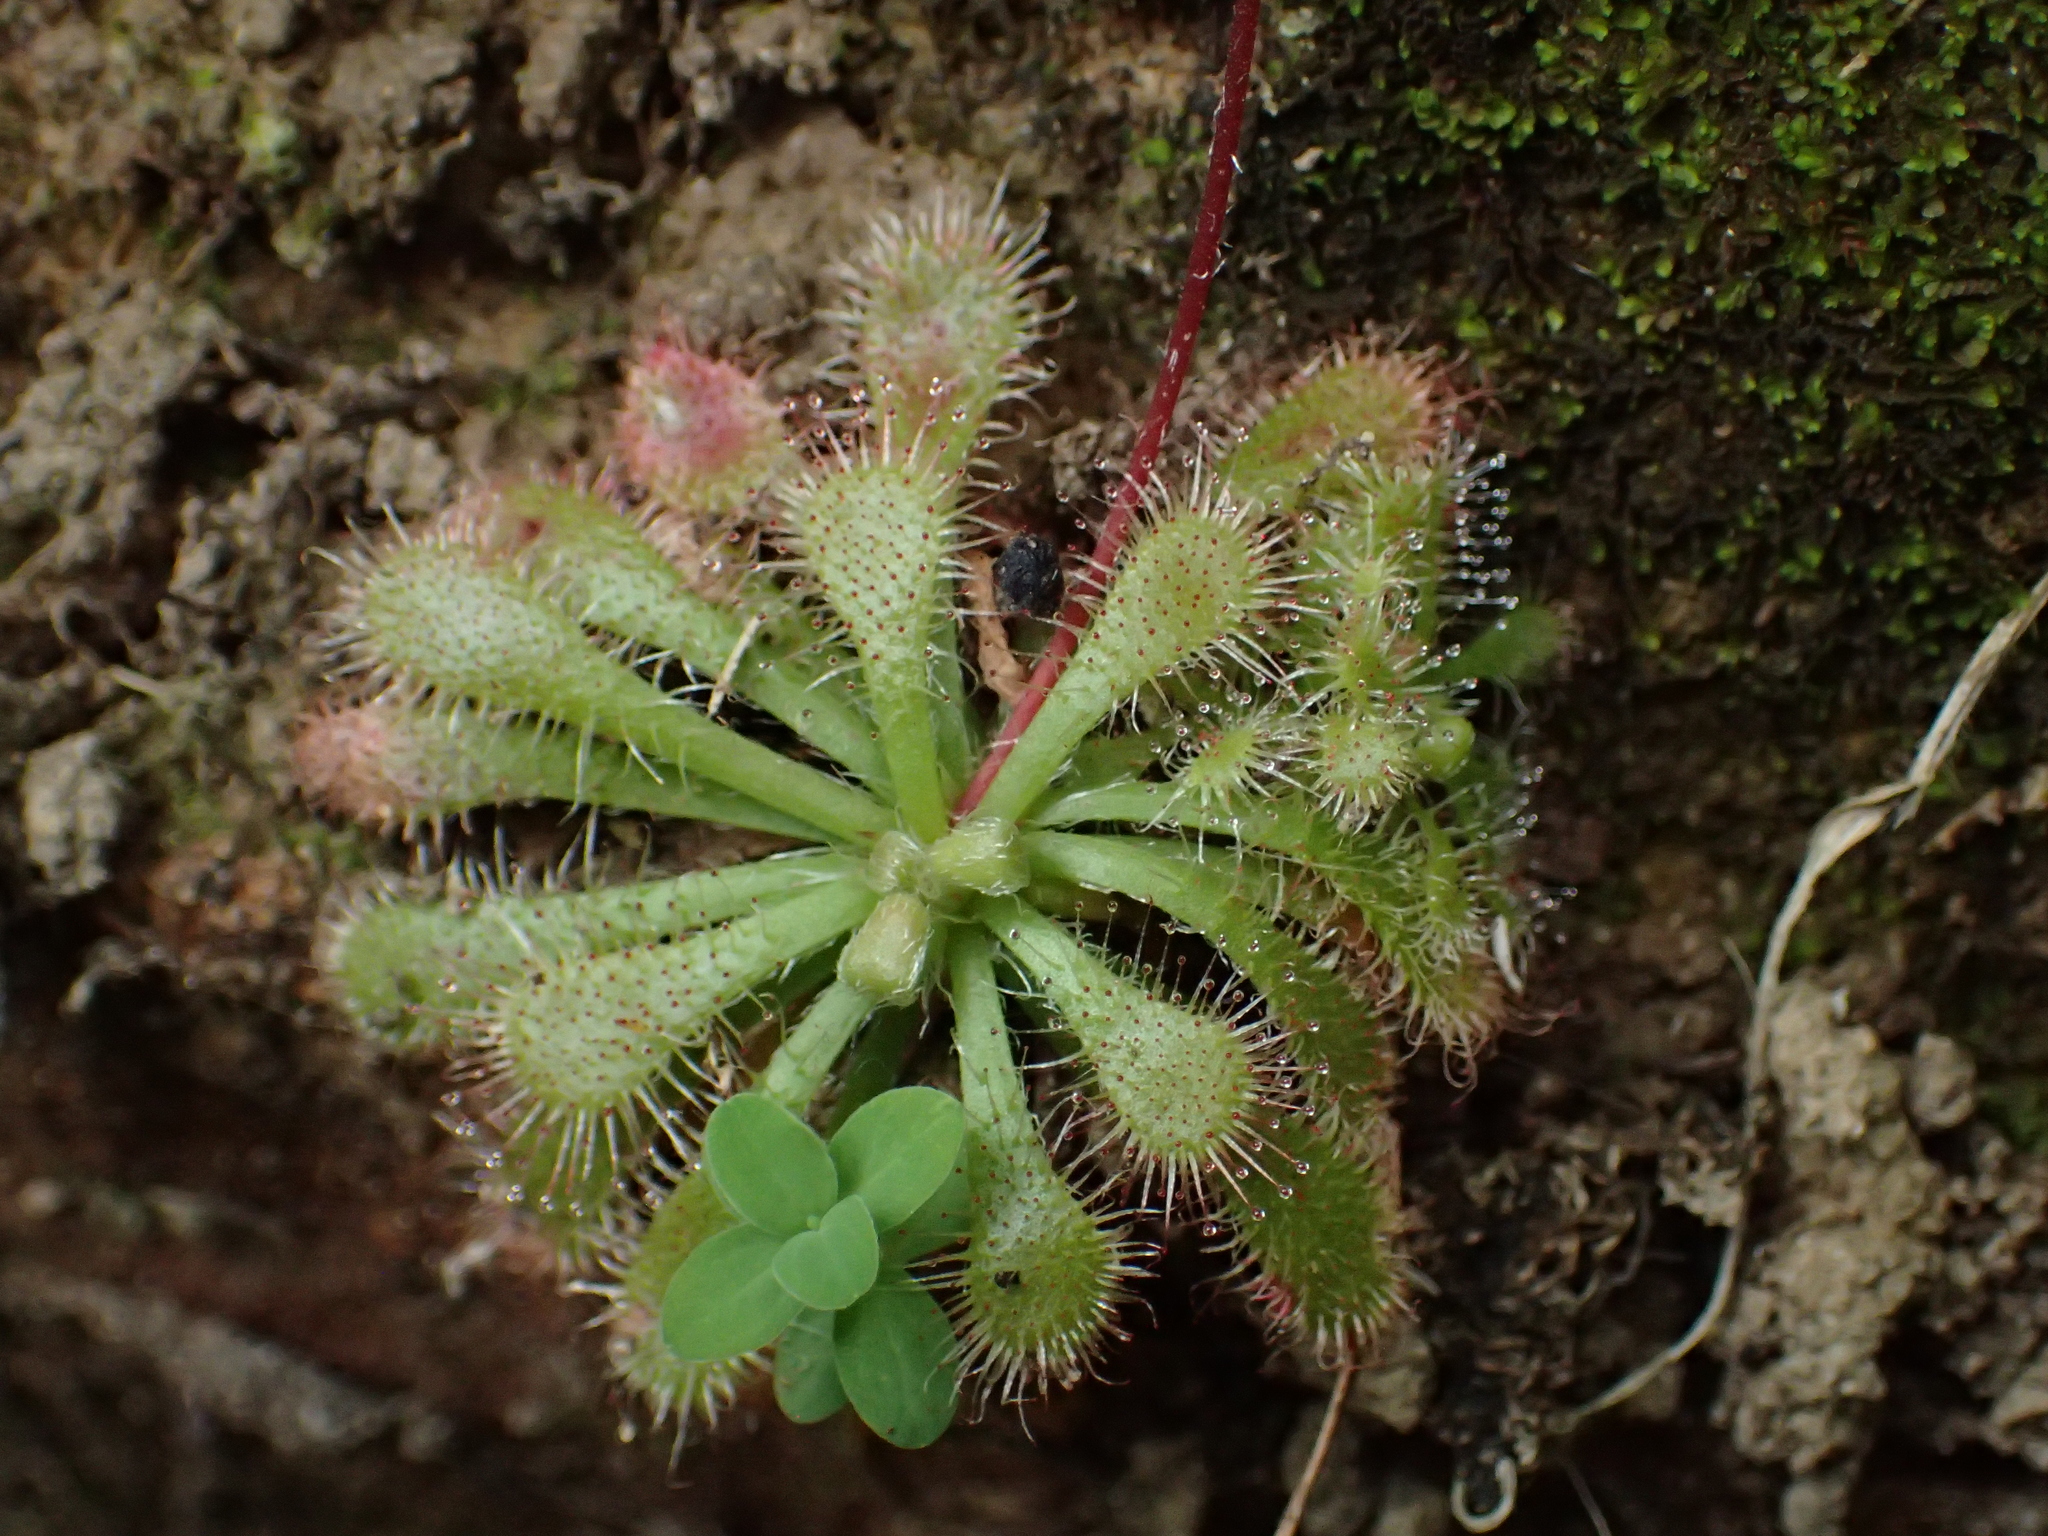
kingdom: Plantae
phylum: Tracheophyta
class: Magnoliopsida
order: Caryophyllales
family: Droseraceae
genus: Drosera
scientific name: Drosera spatulata
